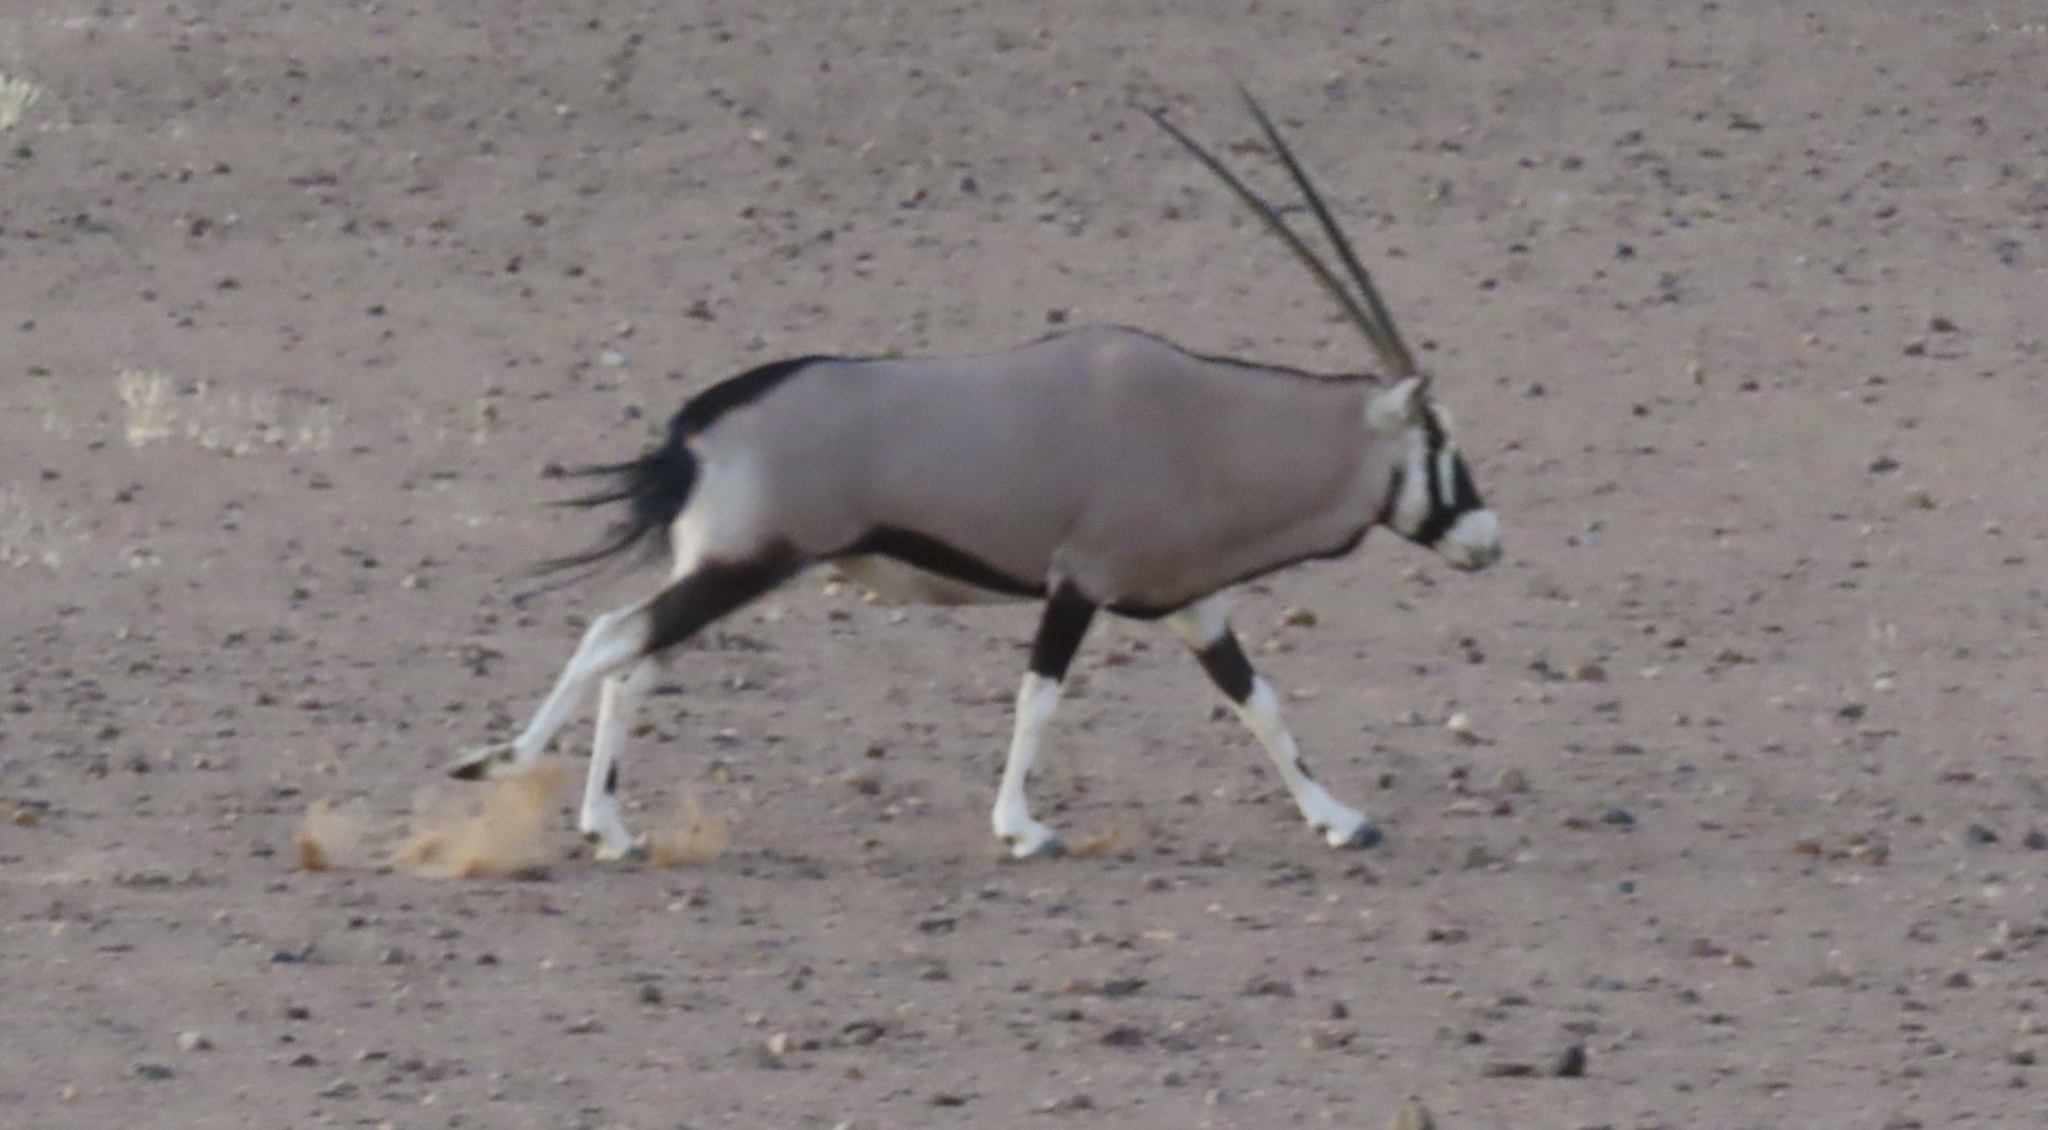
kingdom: Animalia
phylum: Chordata
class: Mammalia
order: Artiodactyla
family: Bovidae
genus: Oryx
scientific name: Oryx gazella
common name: Gemsbok
